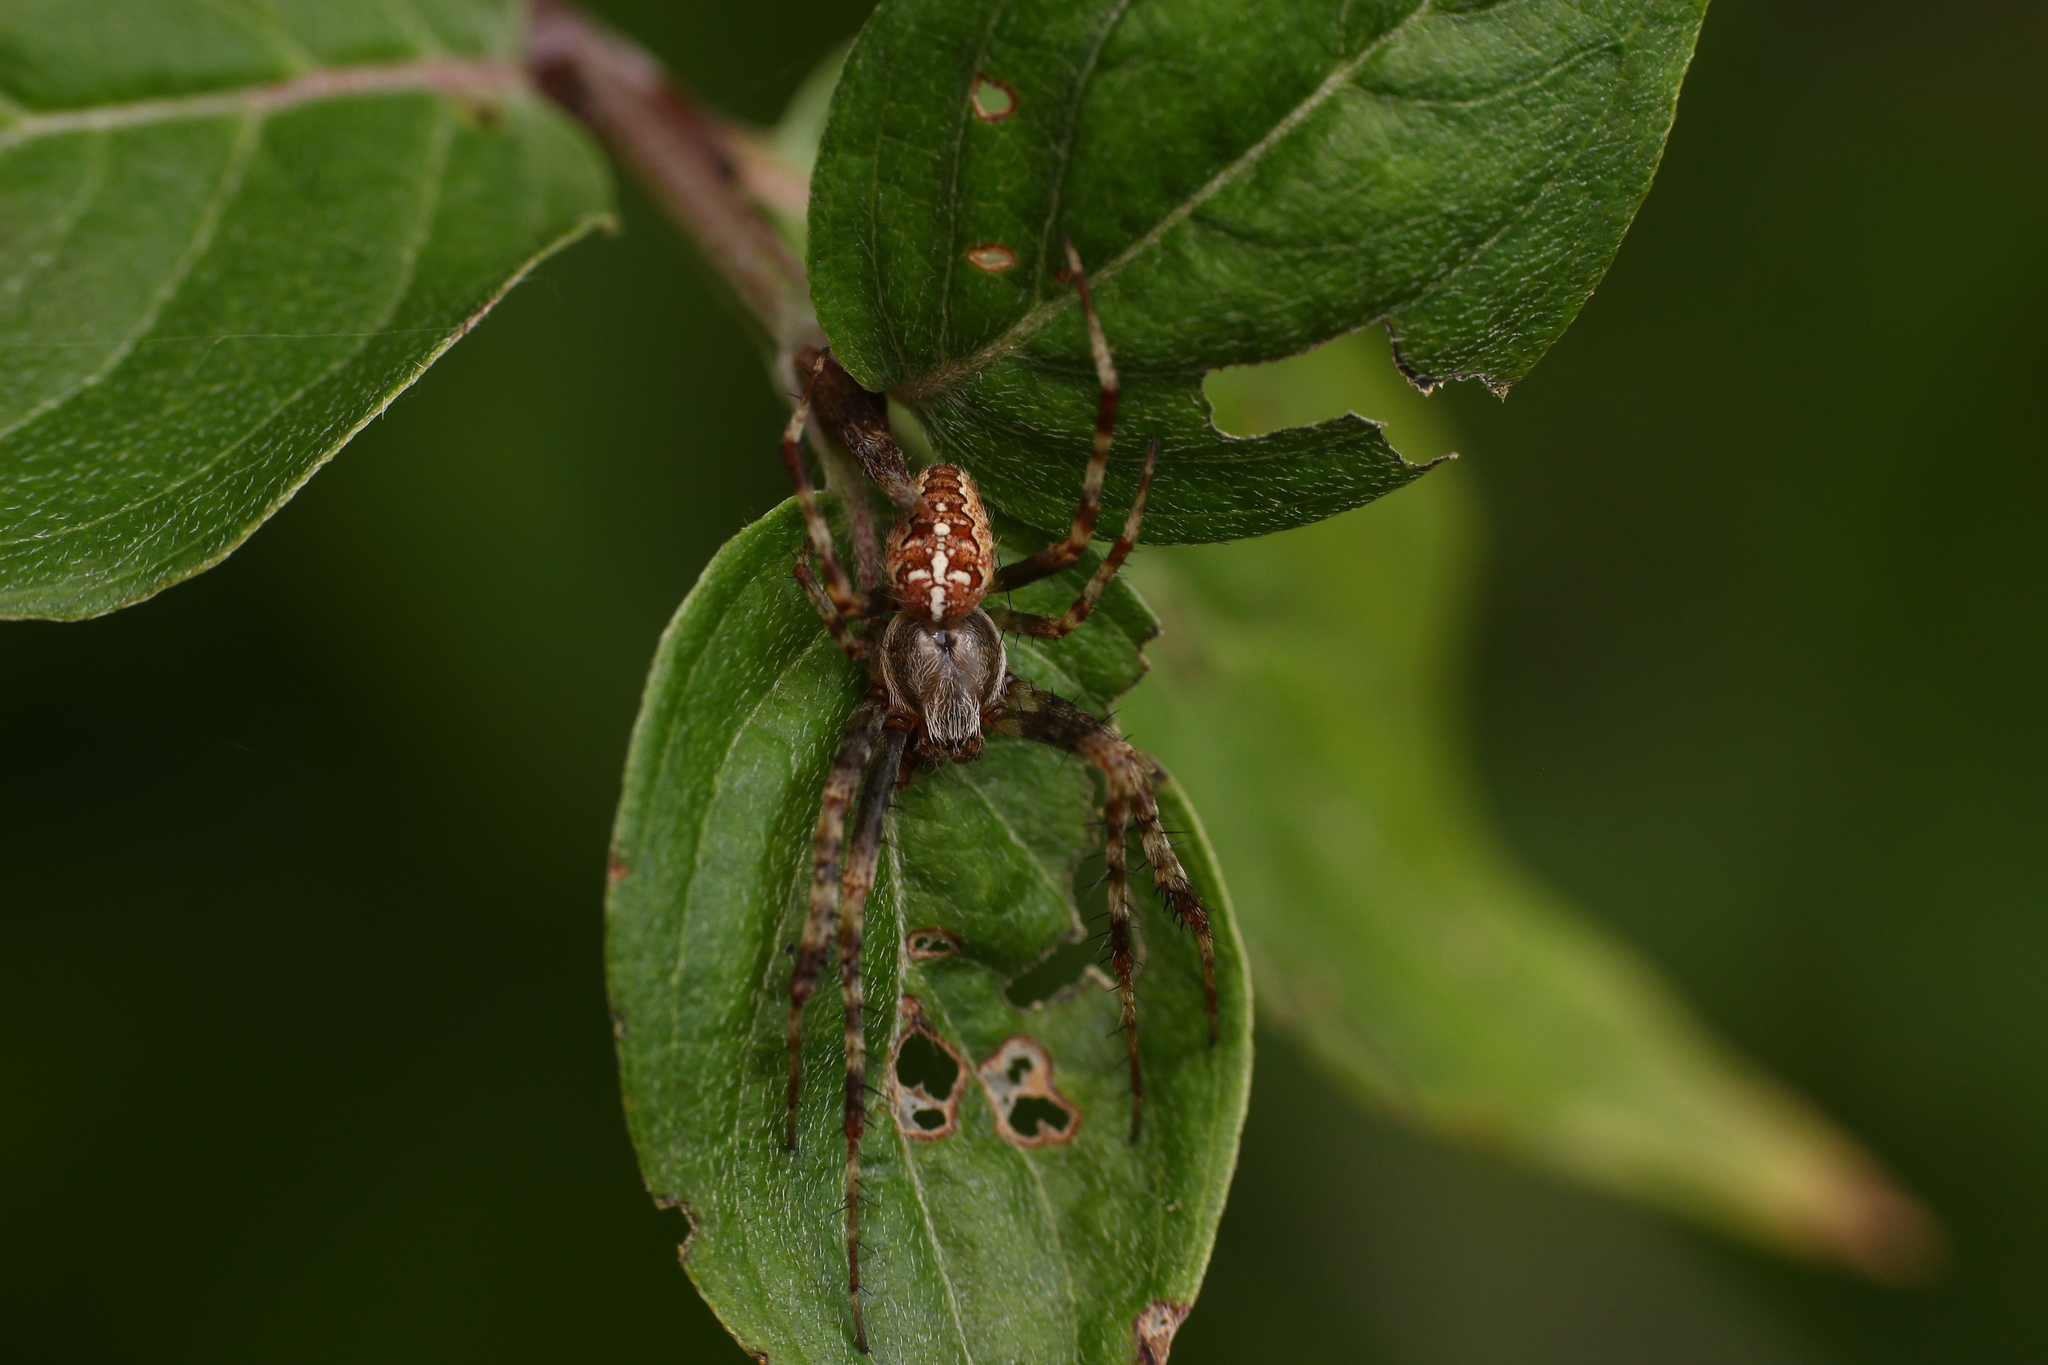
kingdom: Animalia
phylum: Arthropoda
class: Arachnida
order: Araneae
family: Araneidae
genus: Araneus
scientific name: Araneus diadematus
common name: Cross orbweaver
